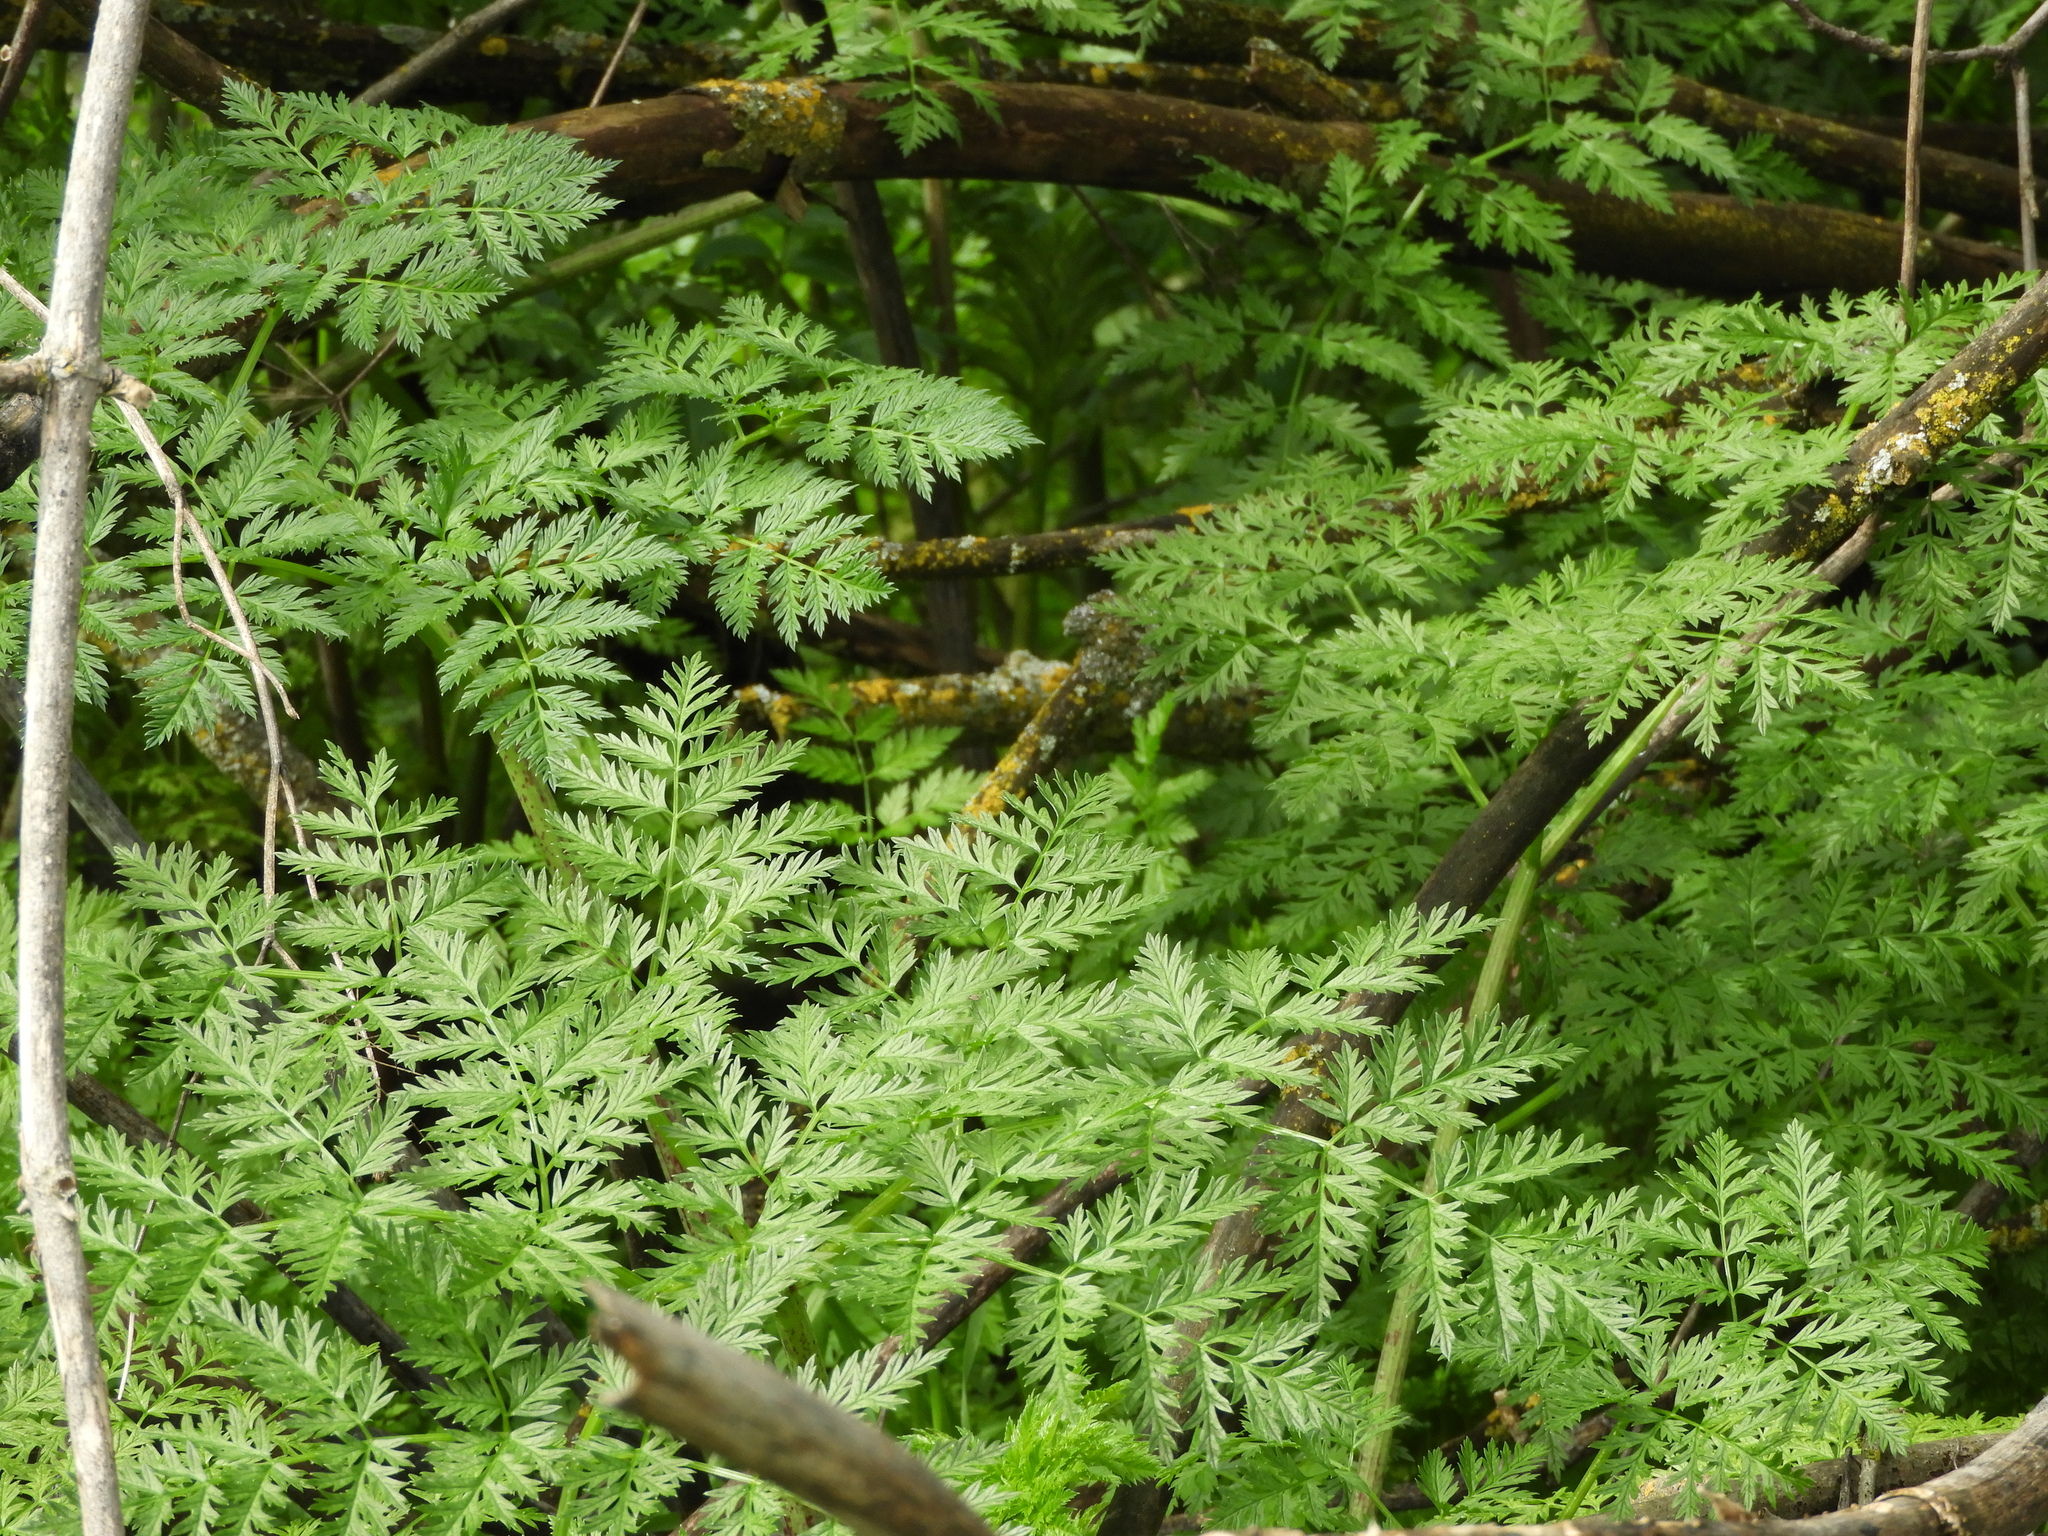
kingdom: Plantae
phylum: Tracheophyta
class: Magnoliopsida
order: Apiales
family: Apiaceae
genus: Conium
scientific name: Conium maculatum
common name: Hemlock
